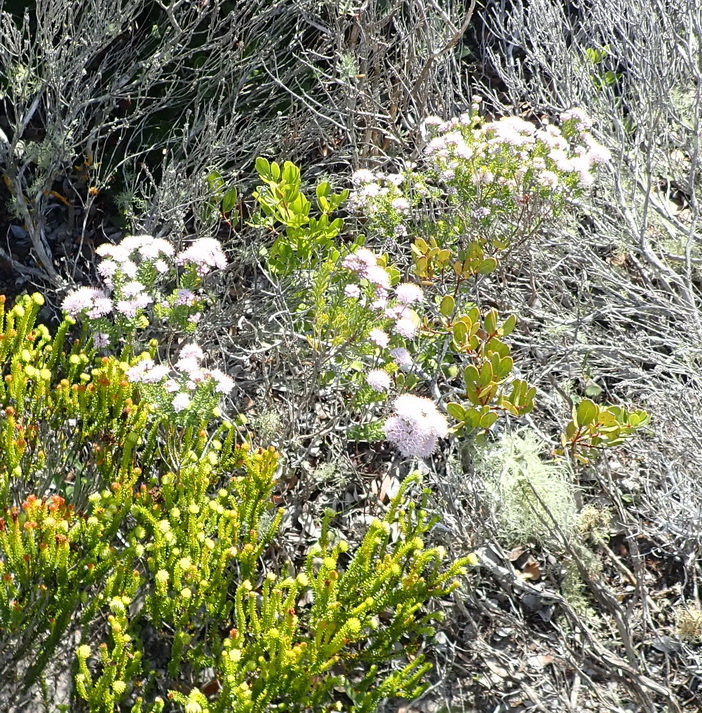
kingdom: Plantae
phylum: Tracheophyta
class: Magnoliopsida
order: Sapindales
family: Rutaceae
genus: Agathosma
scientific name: Agathosma serpyllacea
